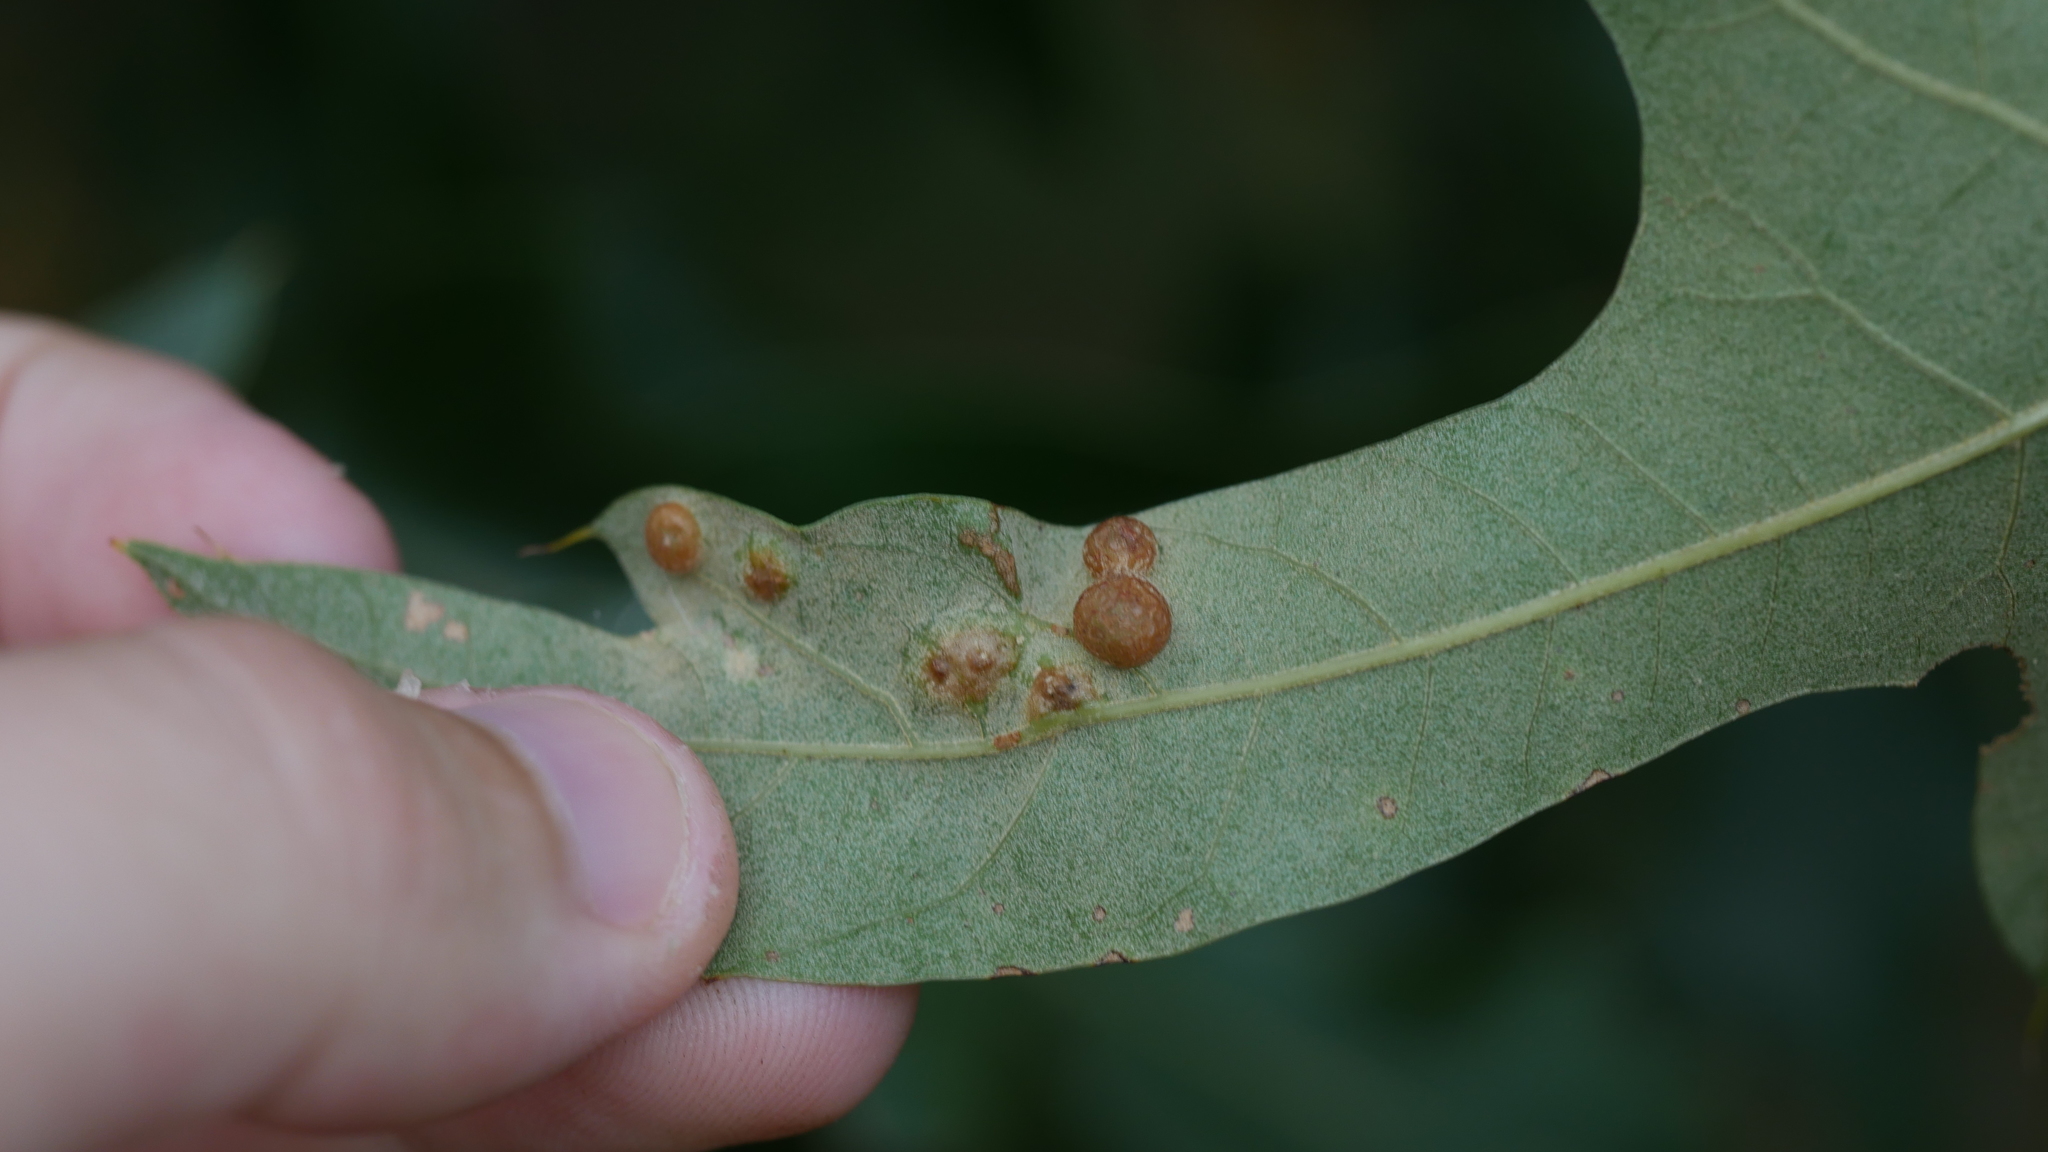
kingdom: Animalia
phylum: Arthropoda
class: Insecta
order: Diptera
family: Cecidomyiidae
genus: Polystepha
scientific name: Polystepha symmetrica
